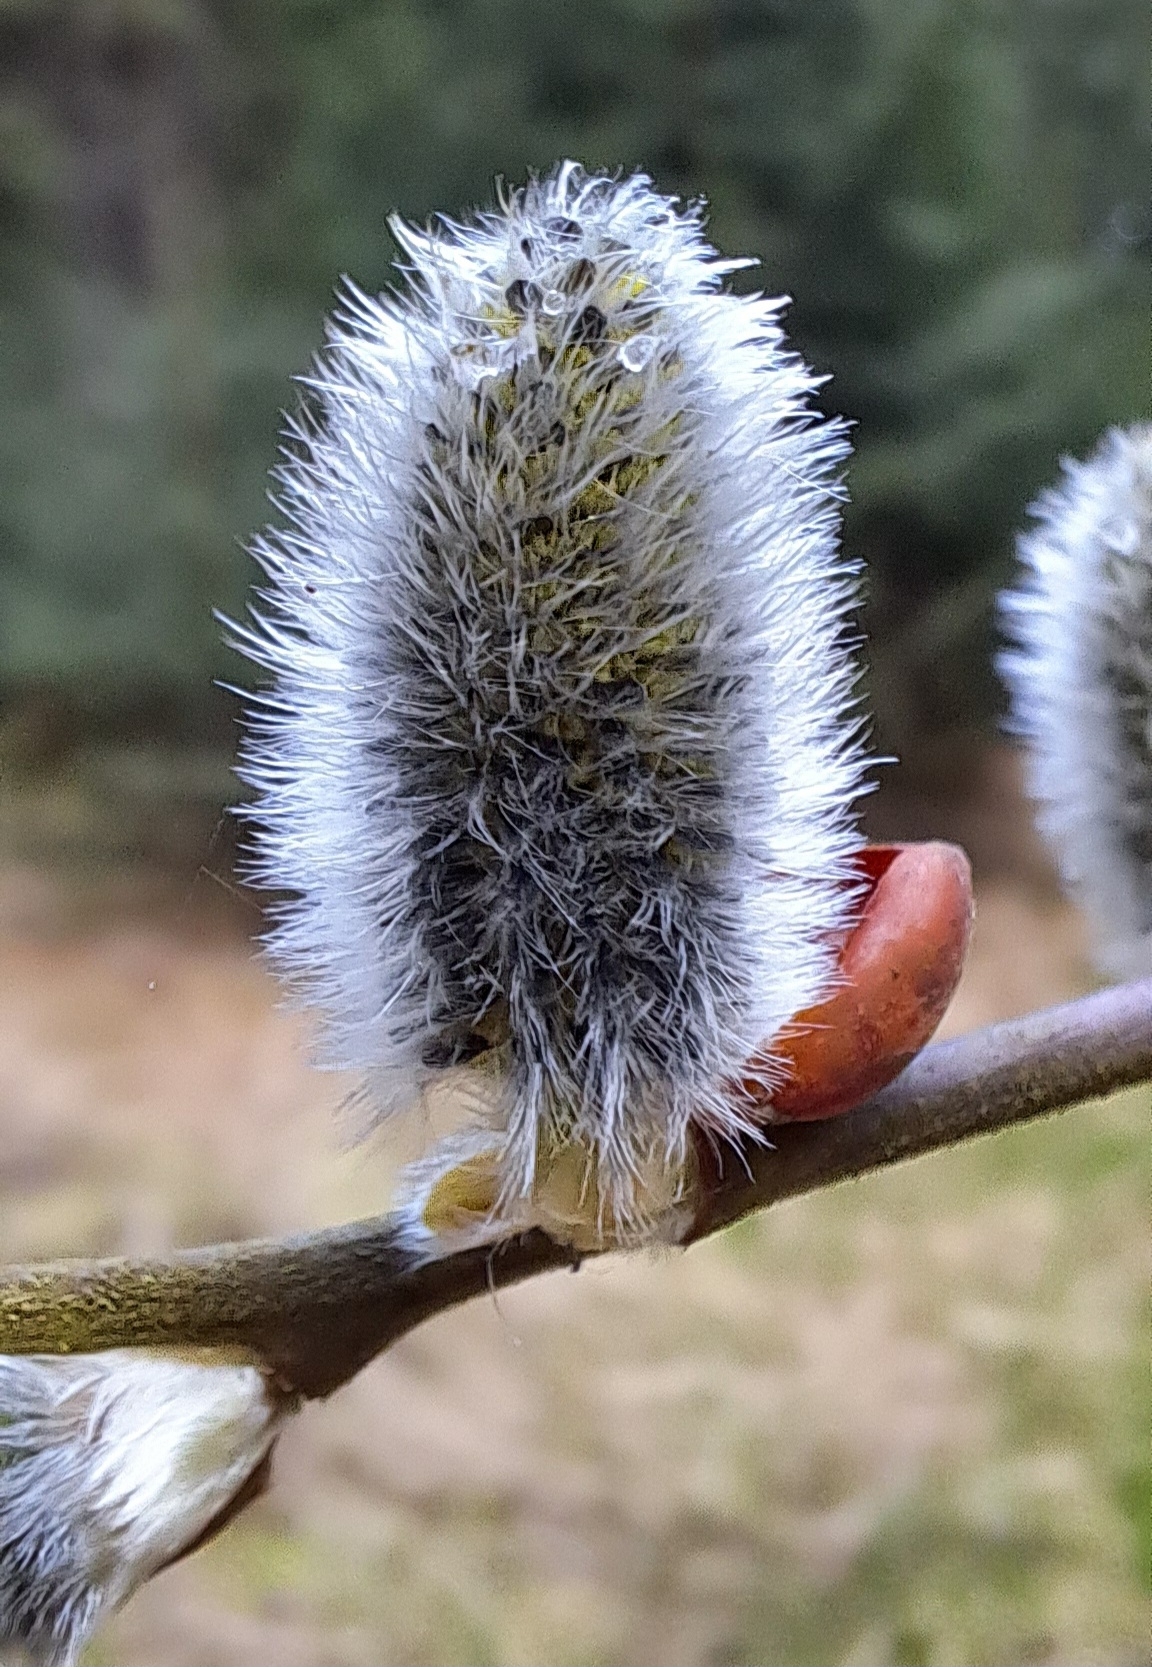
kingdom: Plantae
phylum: Tracheophyta
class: Magnoliopsida
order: Malpighiales
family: Salicaceae
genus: Salix
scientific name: Salix caprea
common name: Goat willow
